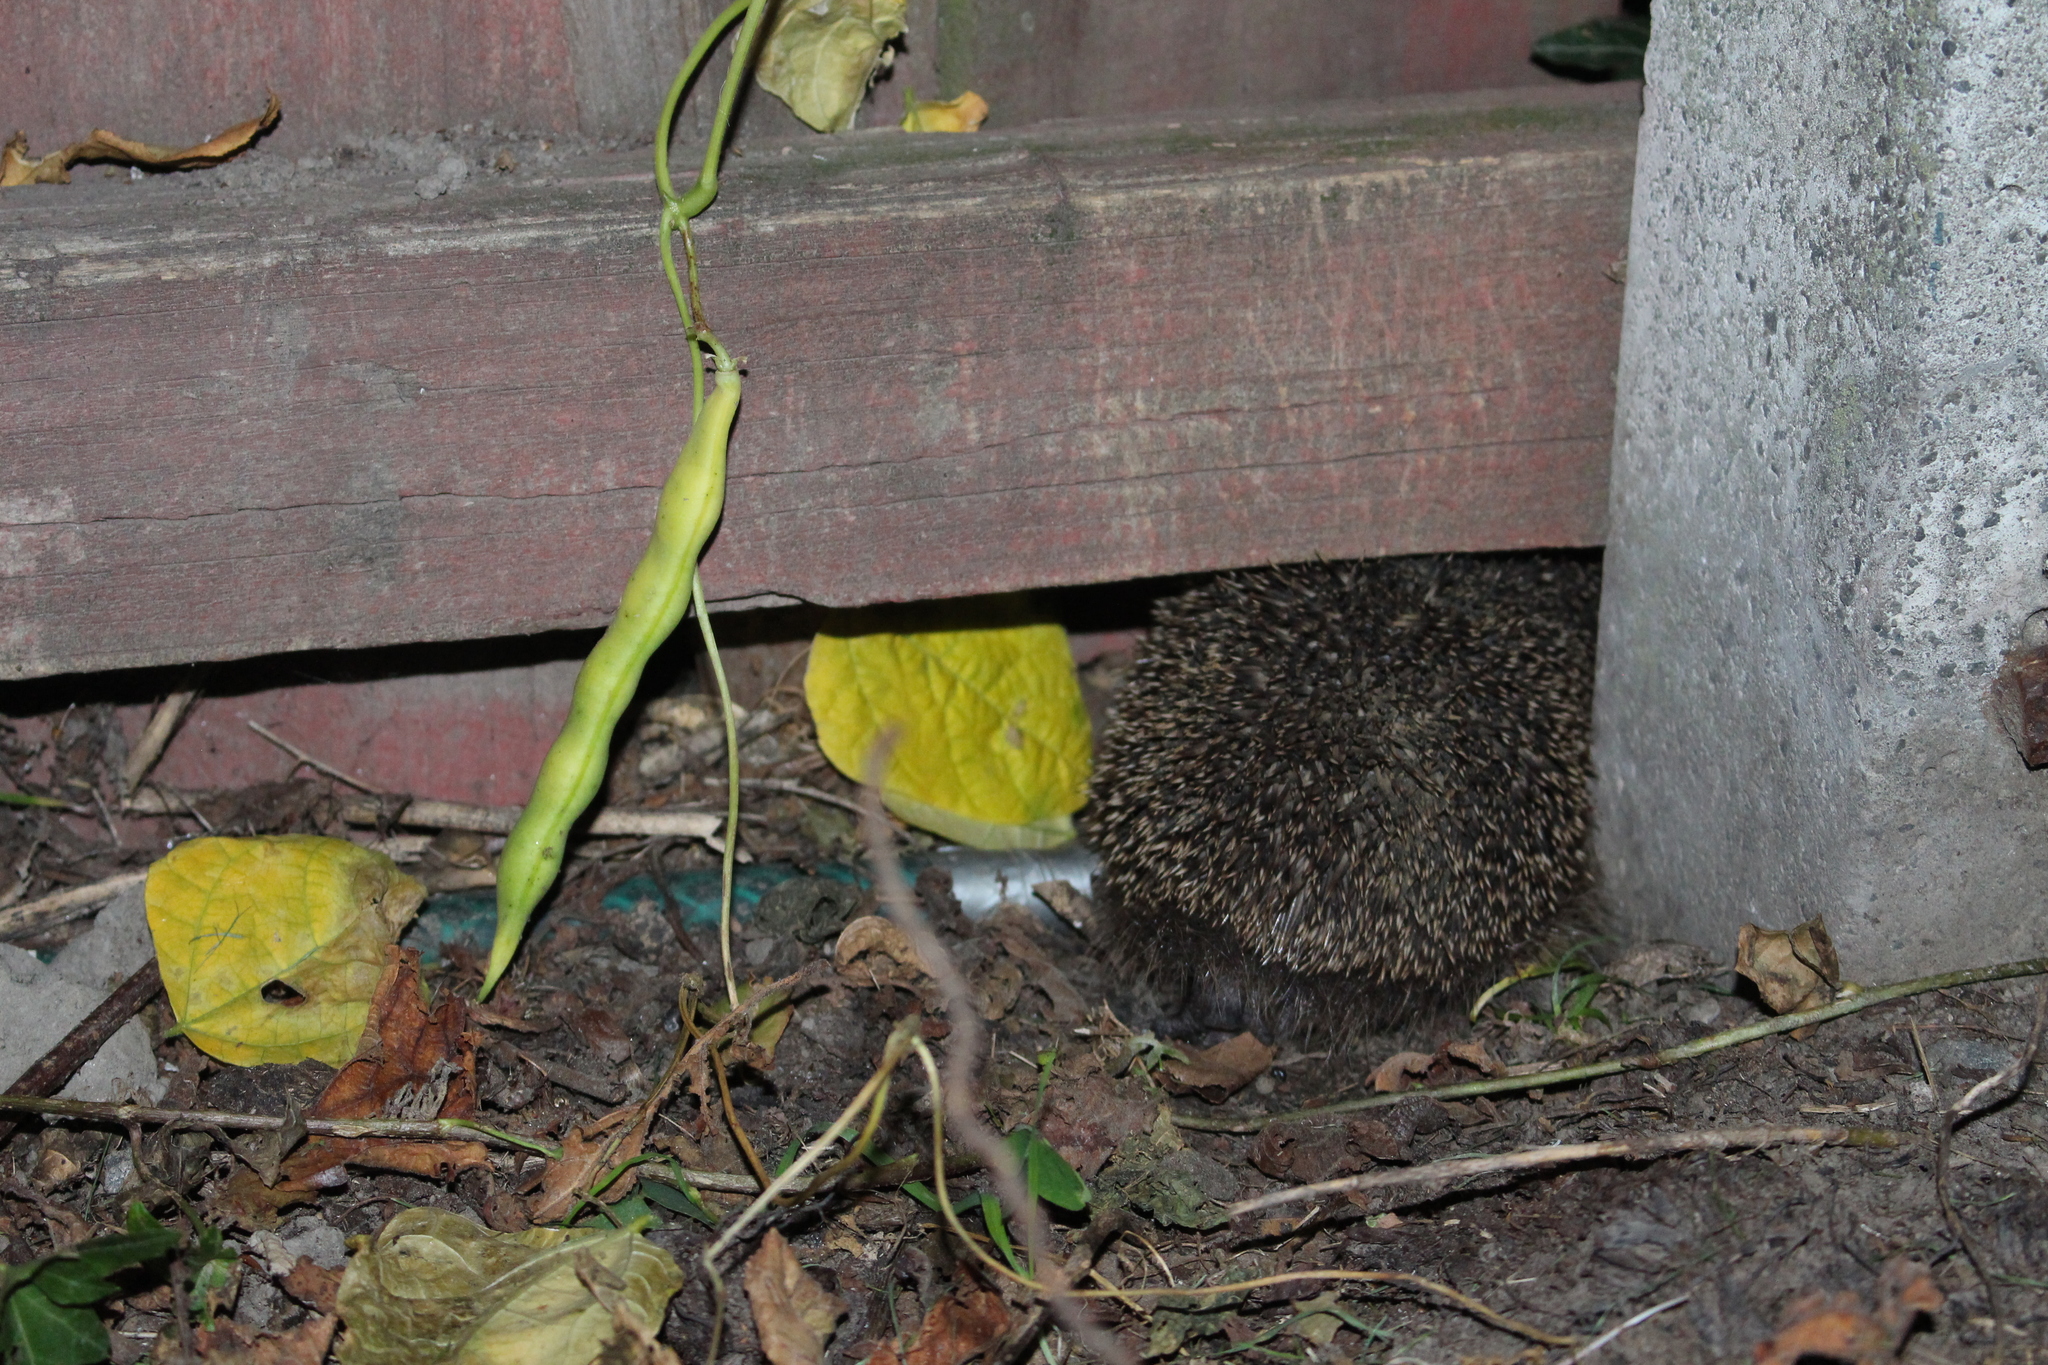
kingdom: Animalia
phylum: Chordata
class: Mammalia
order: Erinaceomorpha
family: Erinaceidae
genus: Erinaceus
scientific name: Erinaceus europaeus
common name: West european hedgehog
